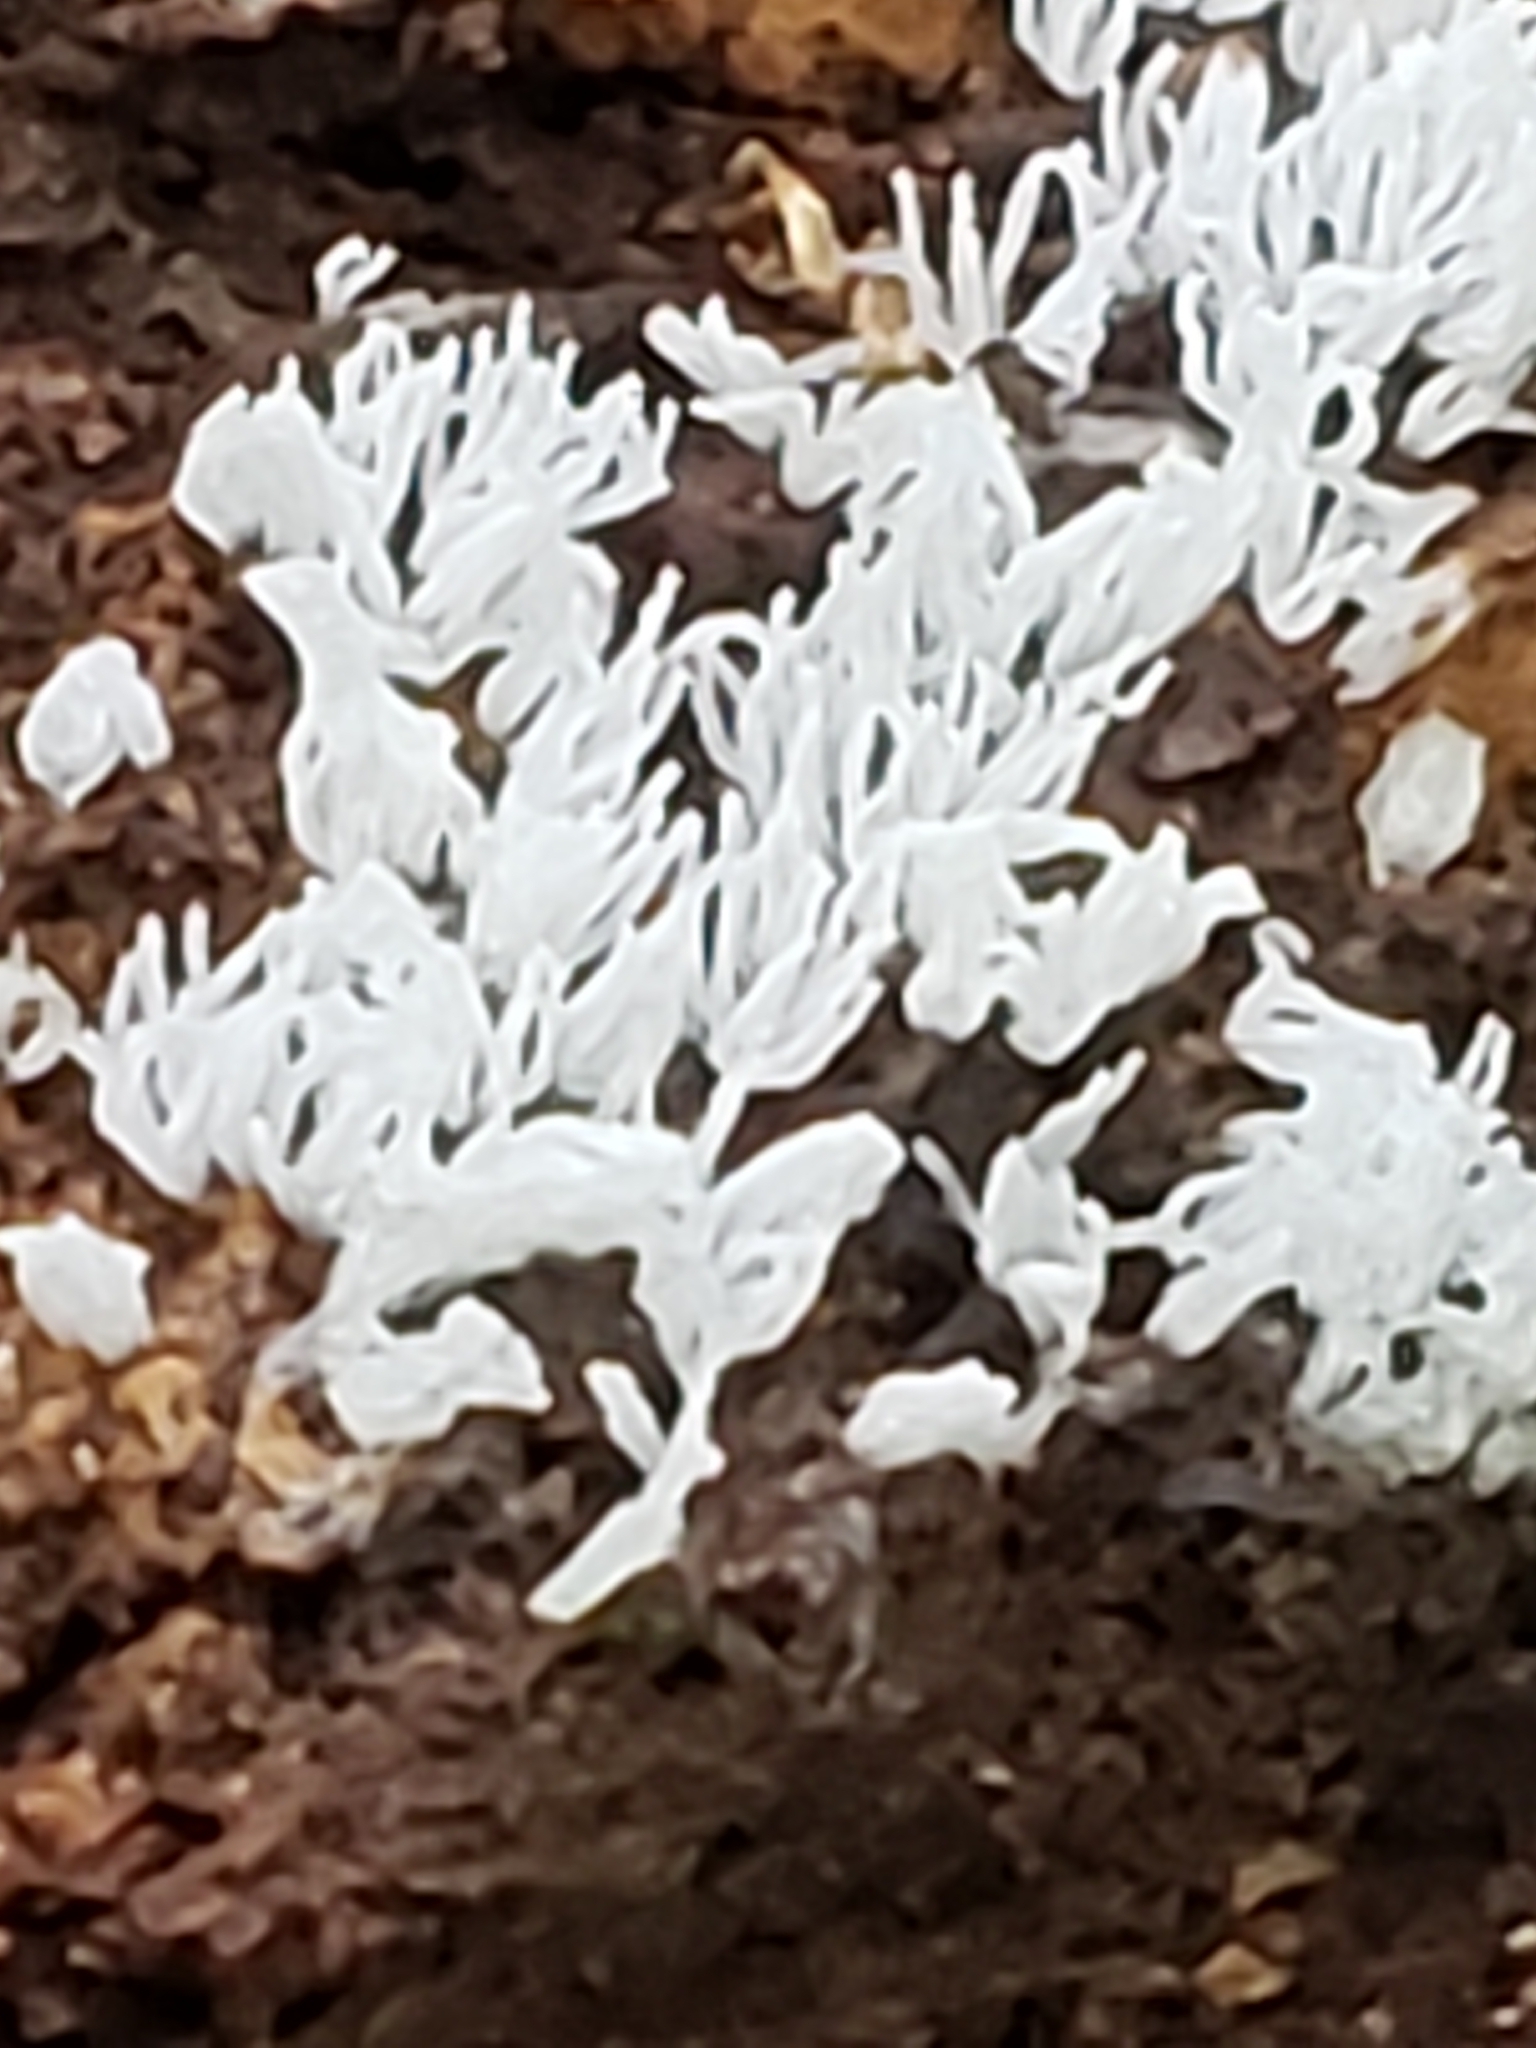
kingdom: Protozoa
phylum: Mycetozoa
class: Protosteliomycetes
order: Ceratiomyxales
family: Ceratiomyxaceae
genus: Ceratiomyxa
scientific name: Ceratiomyxa fruticulosa
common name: Honeycomb coral slime mold
